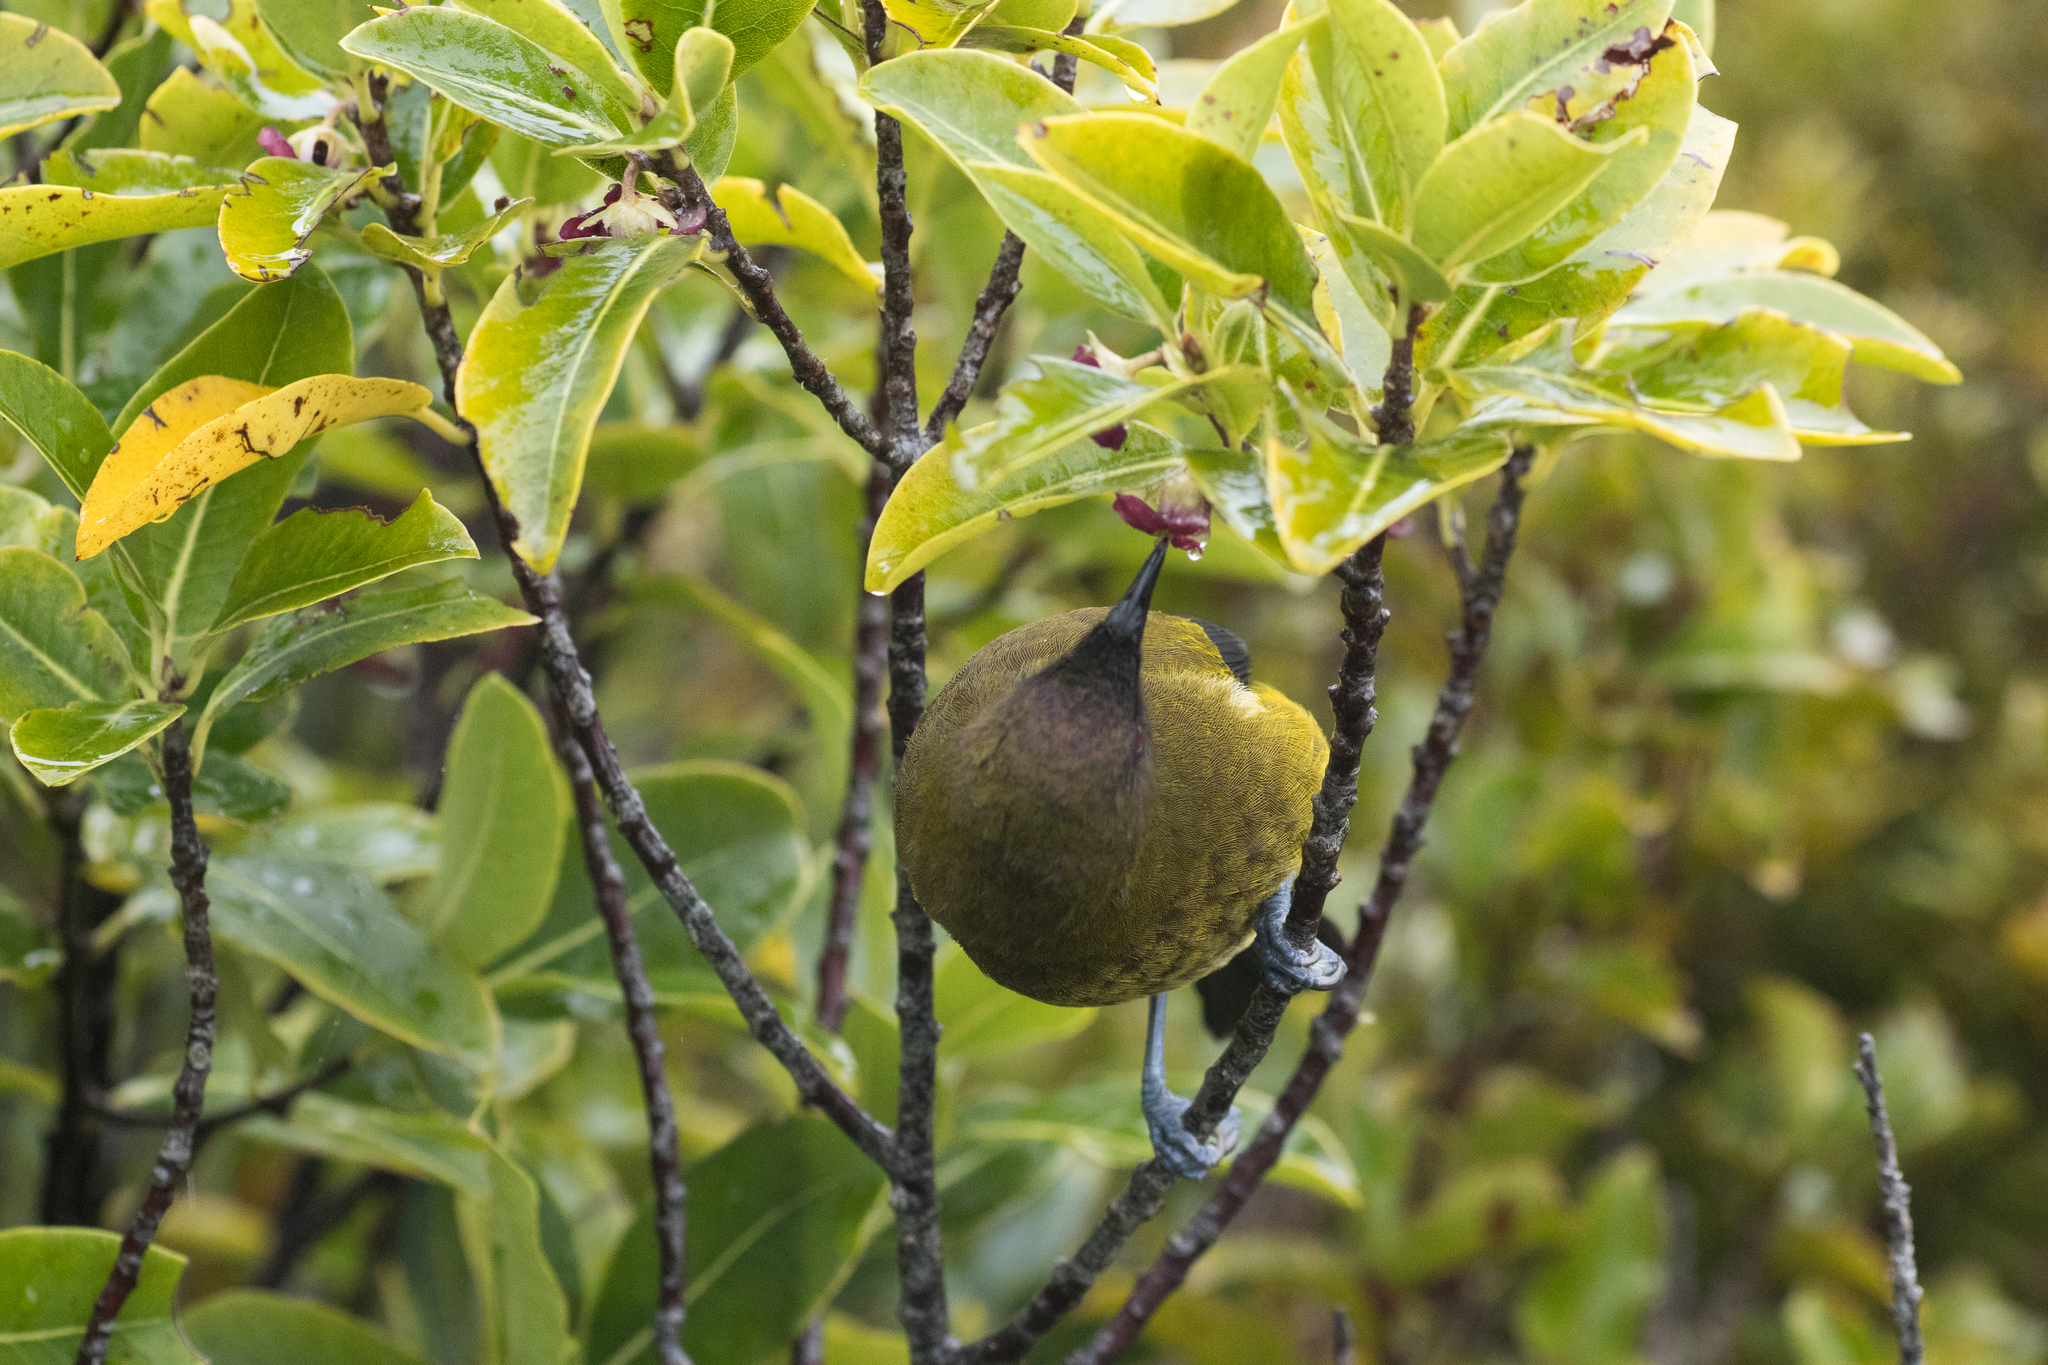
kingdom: Animalia
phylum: Chordata
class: Aves
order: Passeriformes
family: Meliphagidae
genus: Anthornis
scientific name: Anthornis melanura
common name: New zealand bellbird
